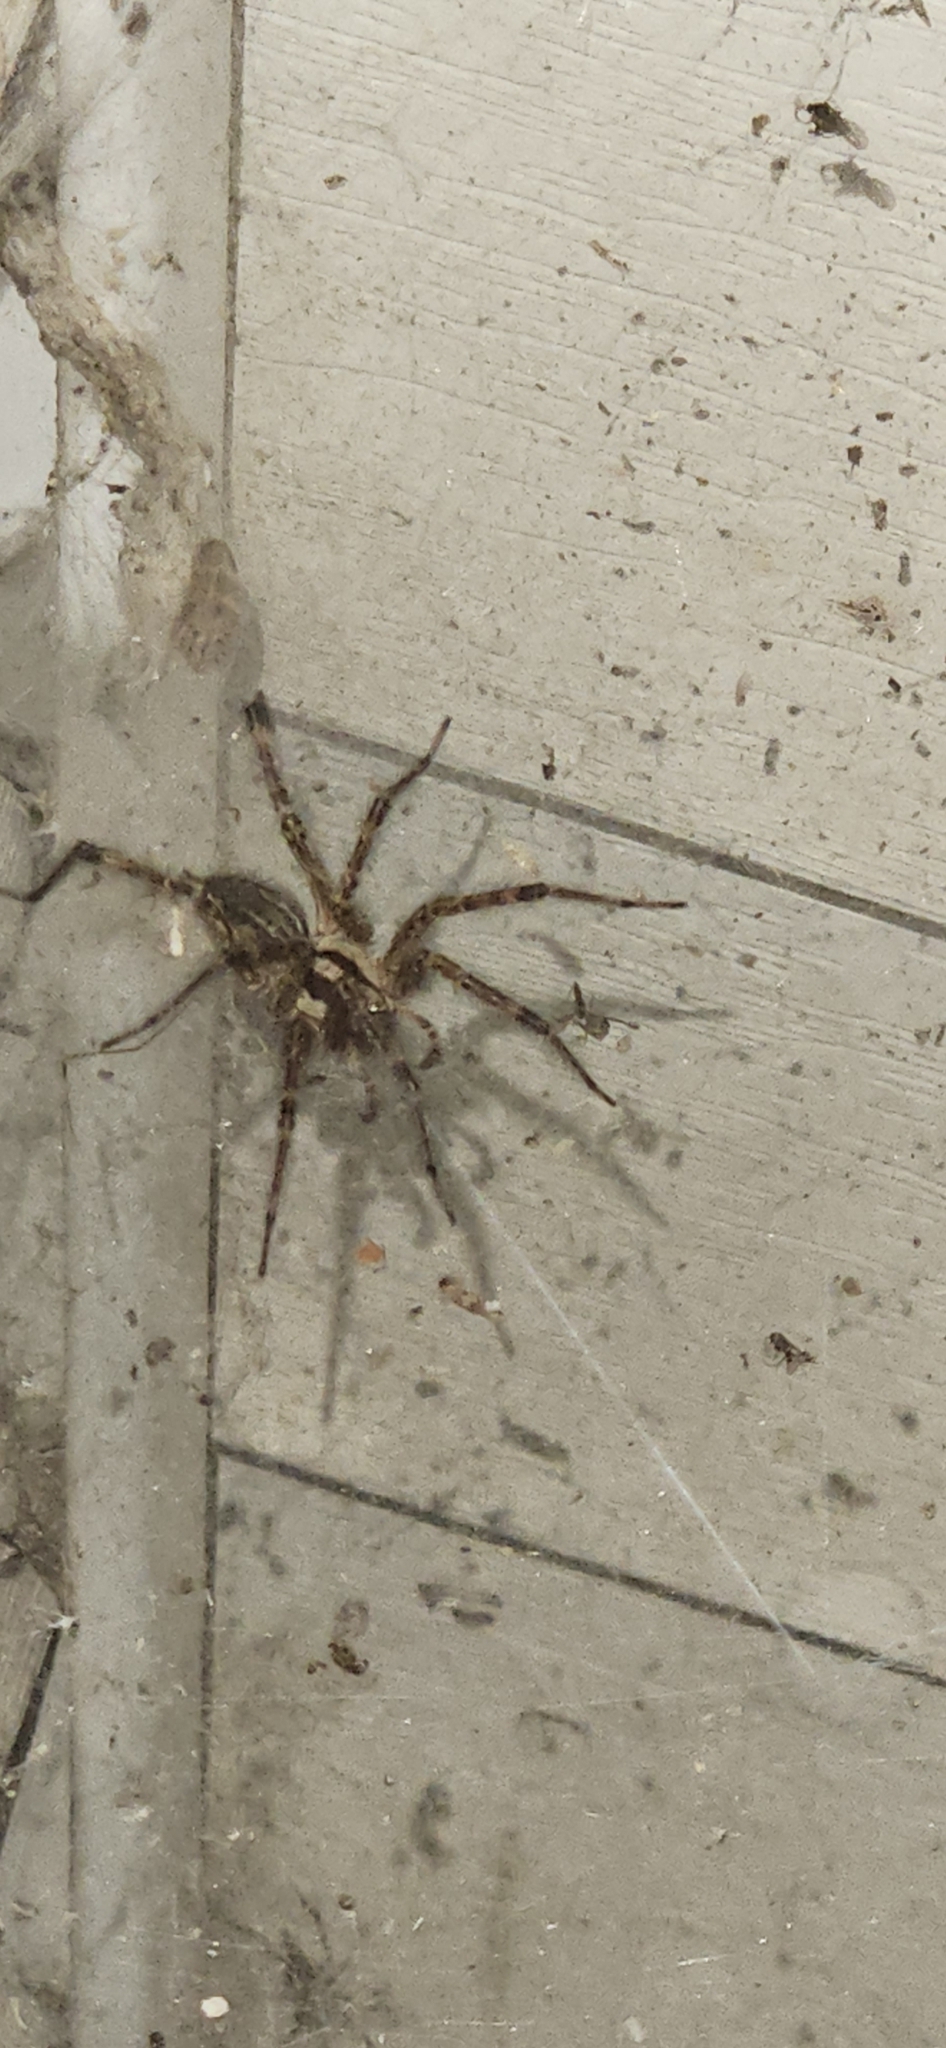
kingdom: Animalia
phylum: Arthropoda
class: Arachnida
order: Araneae
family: Agelenidae
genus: Agelenopsis
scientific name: Agelenopsis
